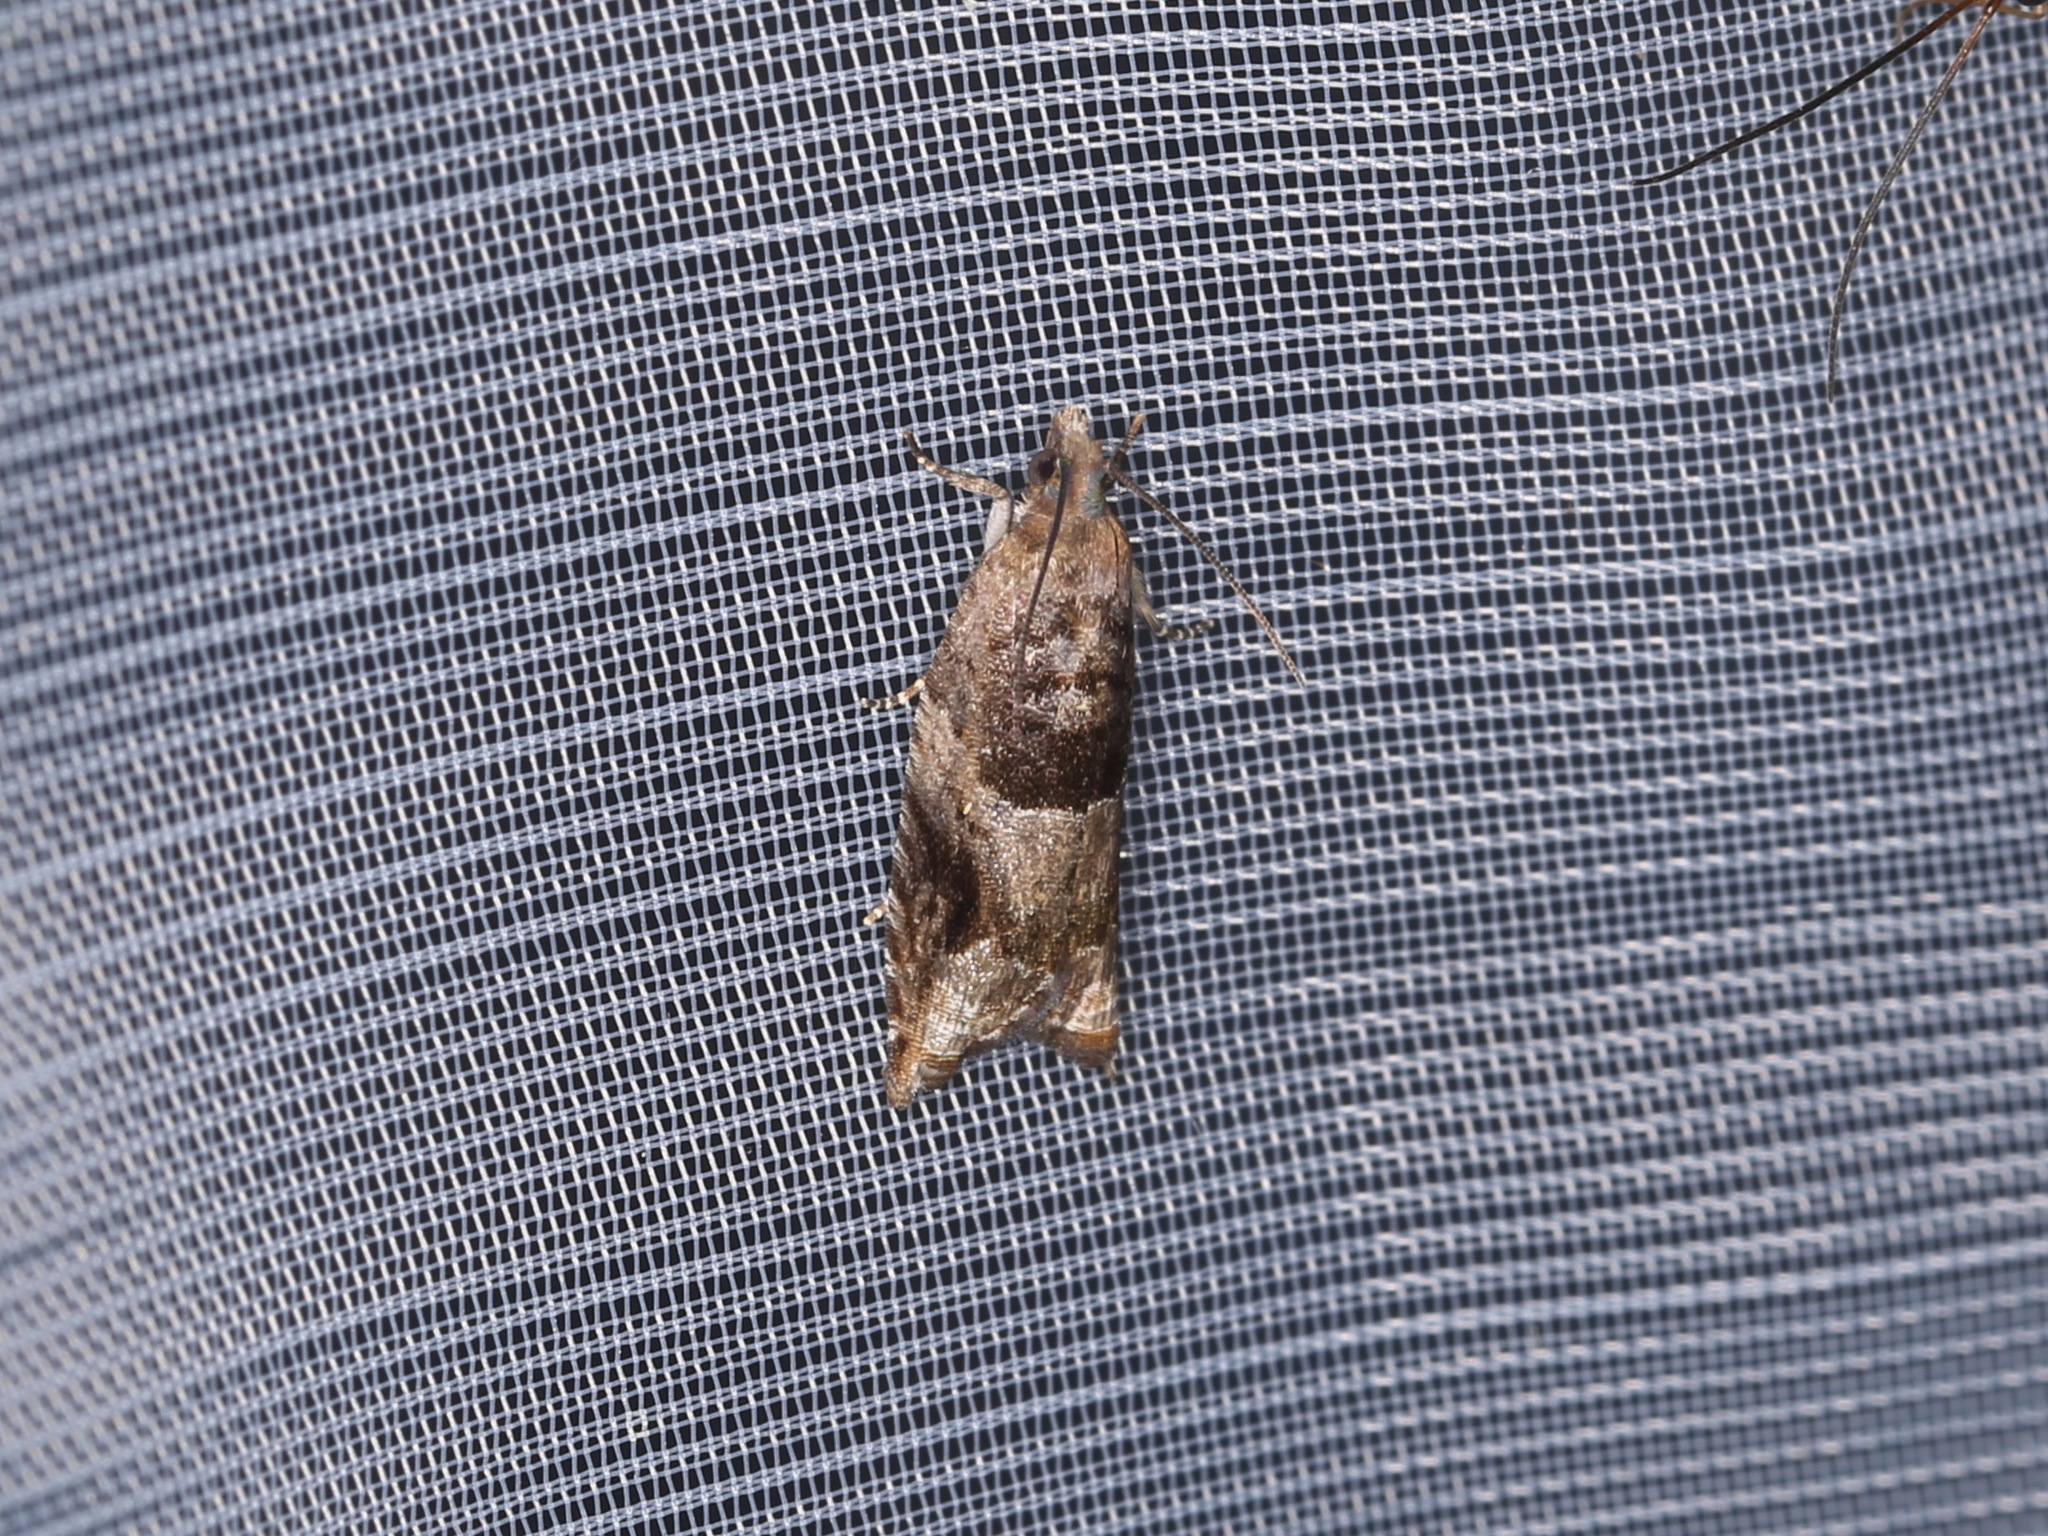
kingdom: Animalia
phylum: Arthropoda
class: Insecta
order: Lepidoptera
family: Tortricidae
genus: Rhopobota
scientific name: Rhopobota naevana
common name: Blackheaded fireworm, holly tortrix
